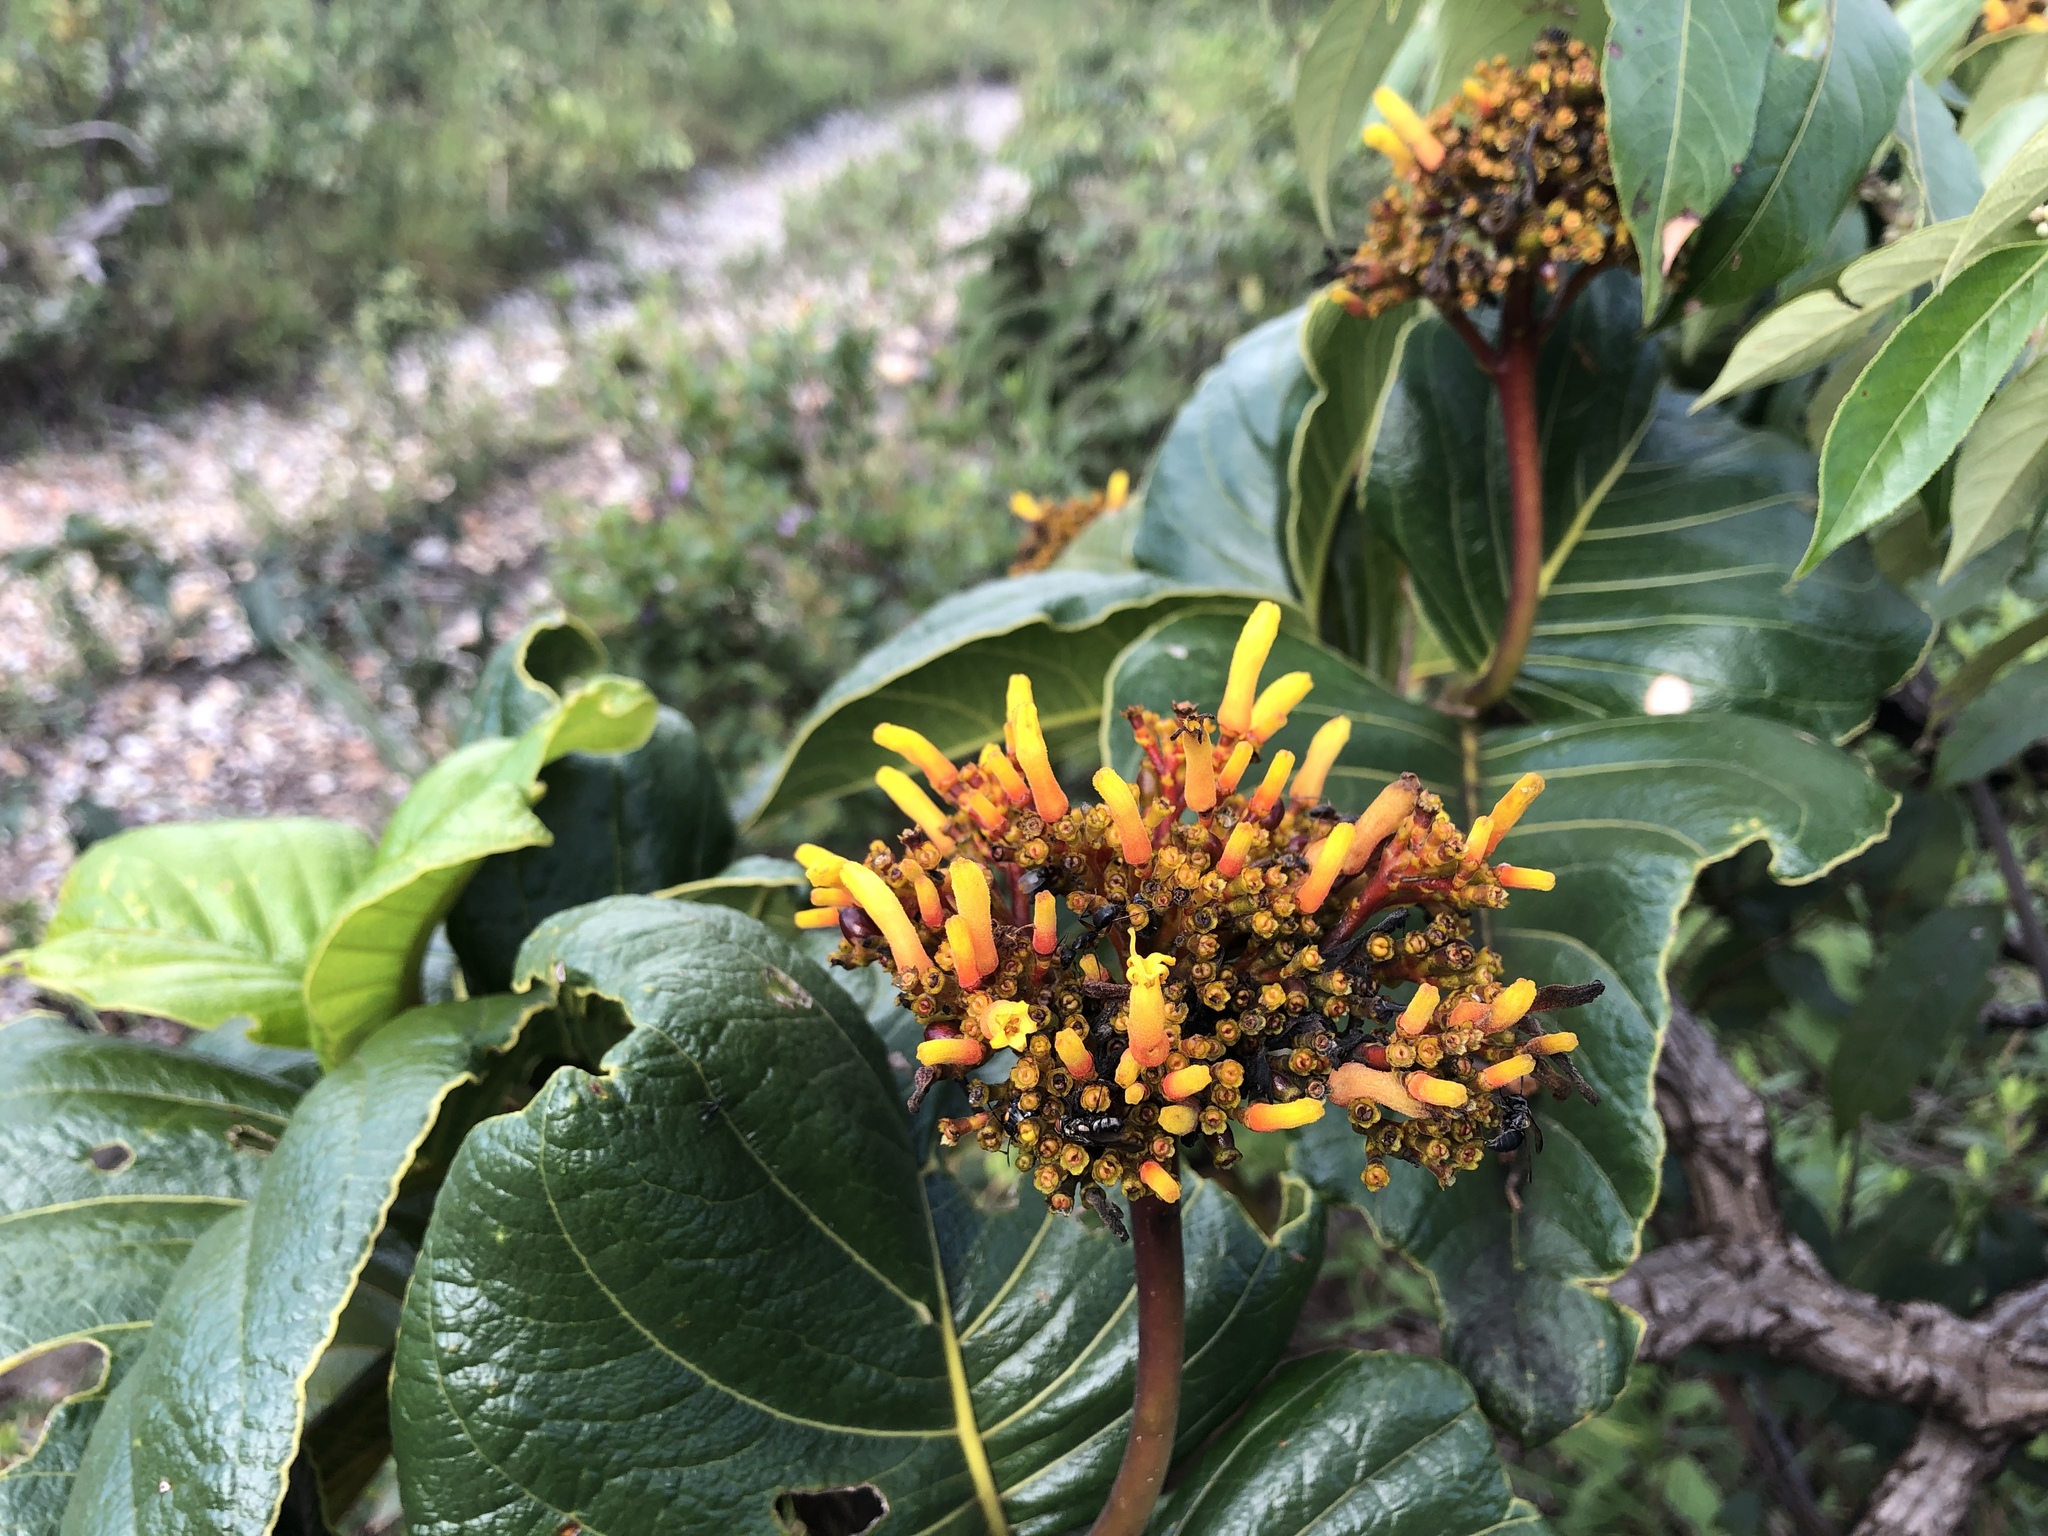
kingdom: Plantae
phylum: Tracheophyta
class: Magnoliopsida
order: Gentianales
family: Rubiaceae
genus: Palicourea
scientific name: Palicourea rigida
